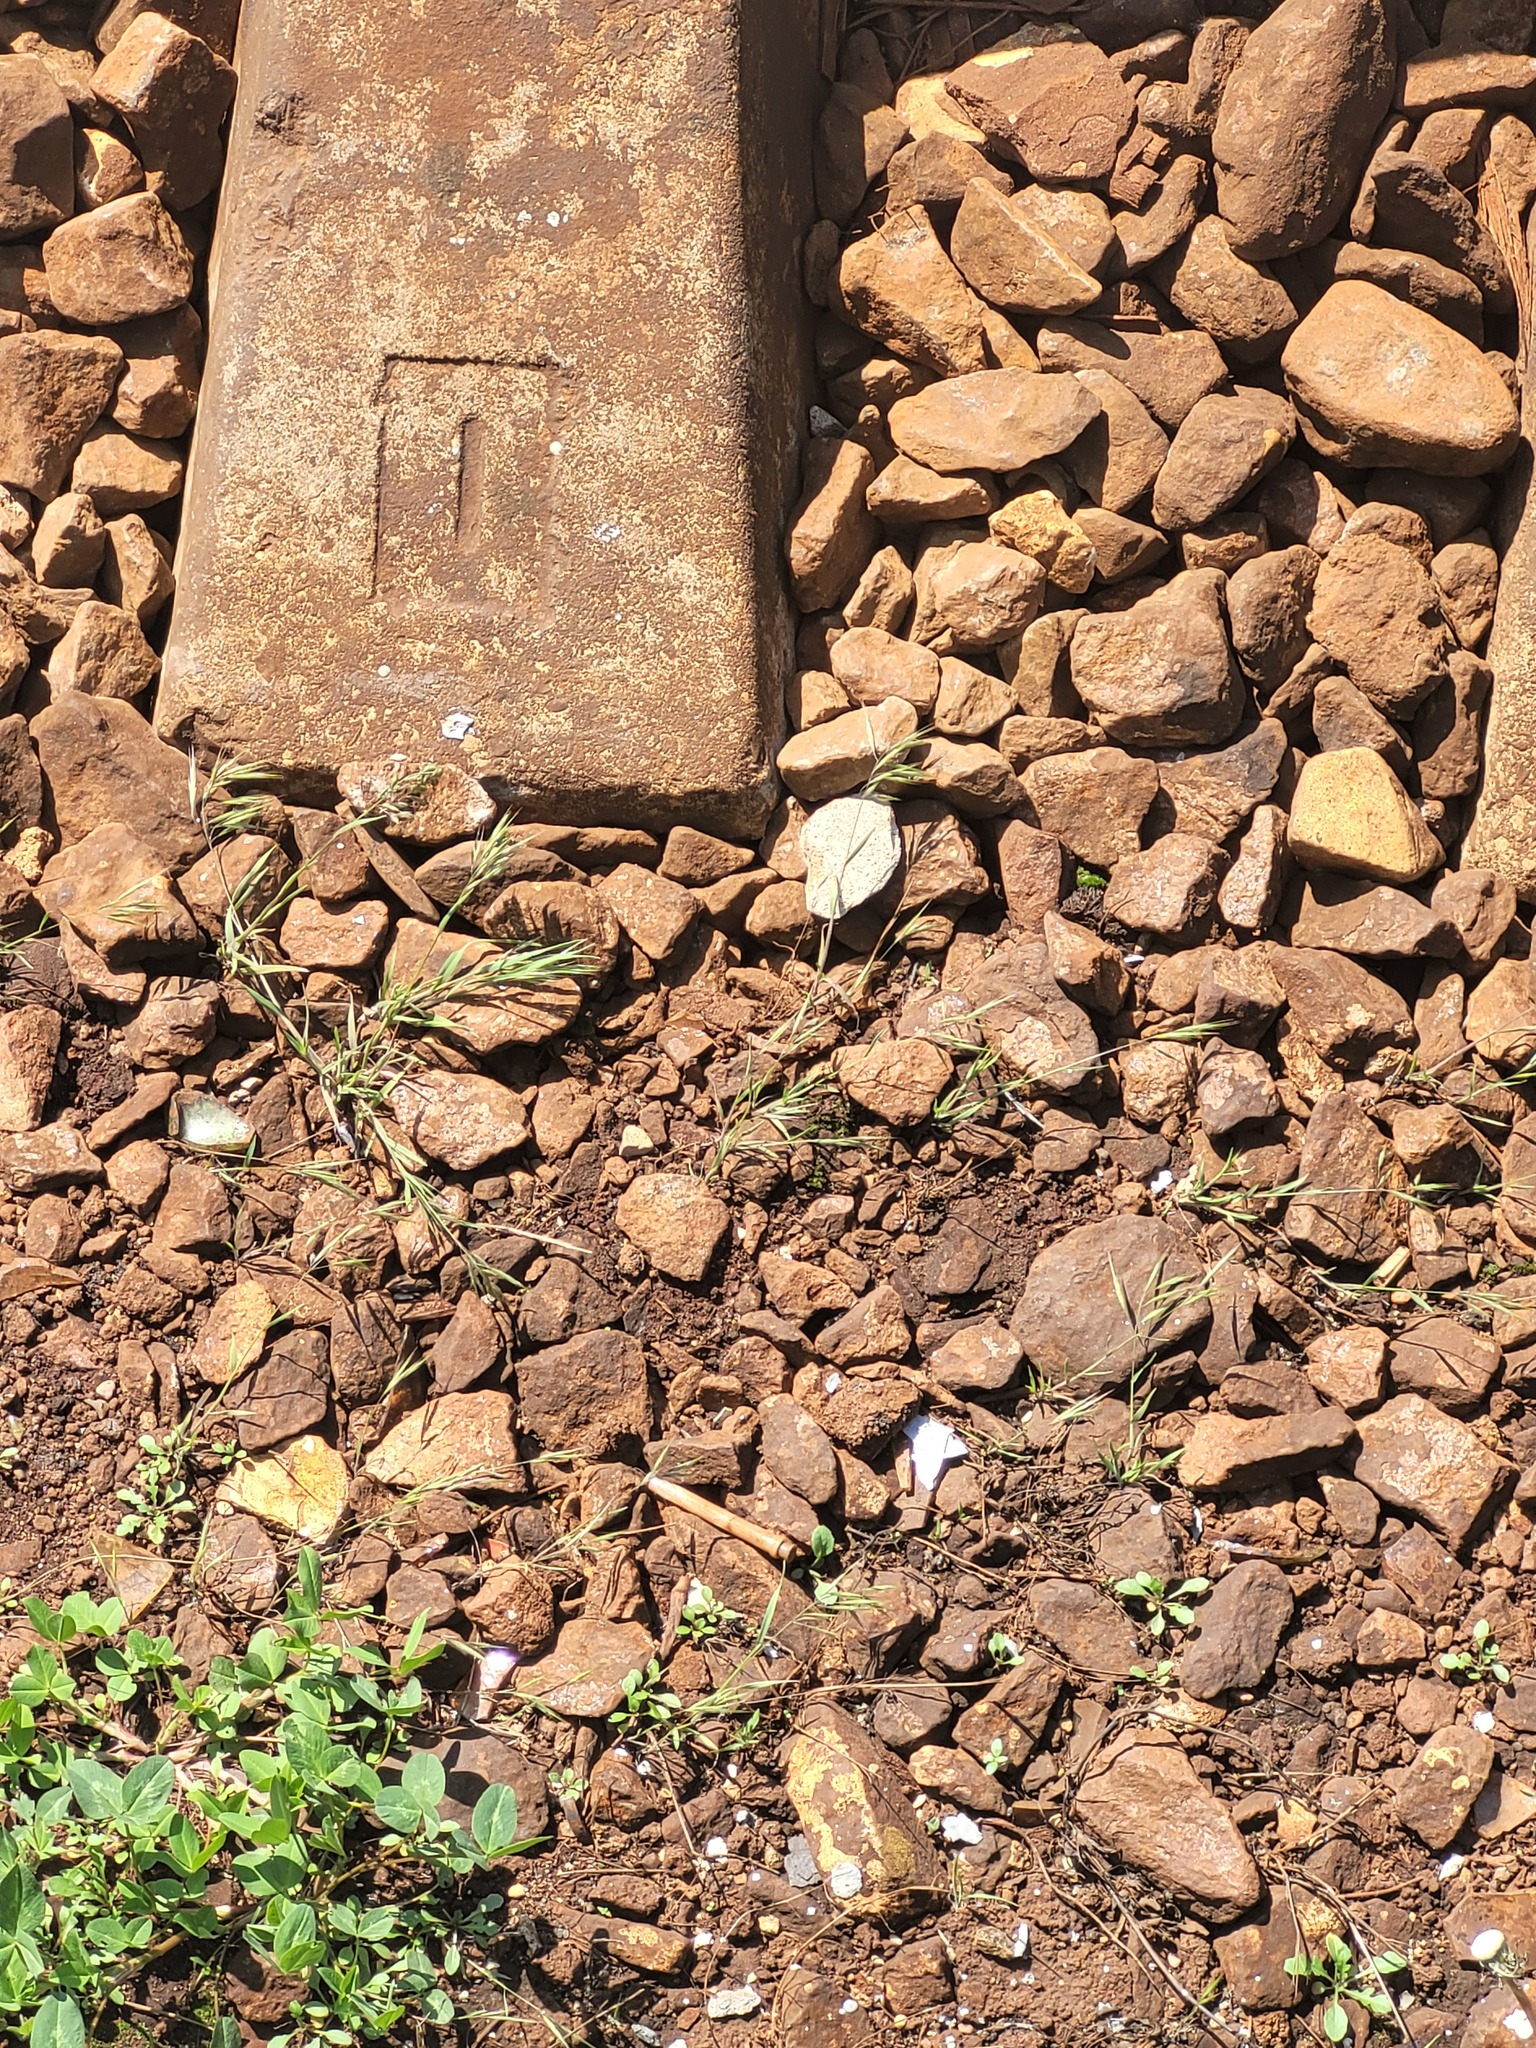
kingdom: Plantae
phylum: Tracheophyta
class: Liliopsida
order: Poales
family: Poaceae
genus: Bromus
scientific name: Bromus tectorum
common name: Cheatgrass
